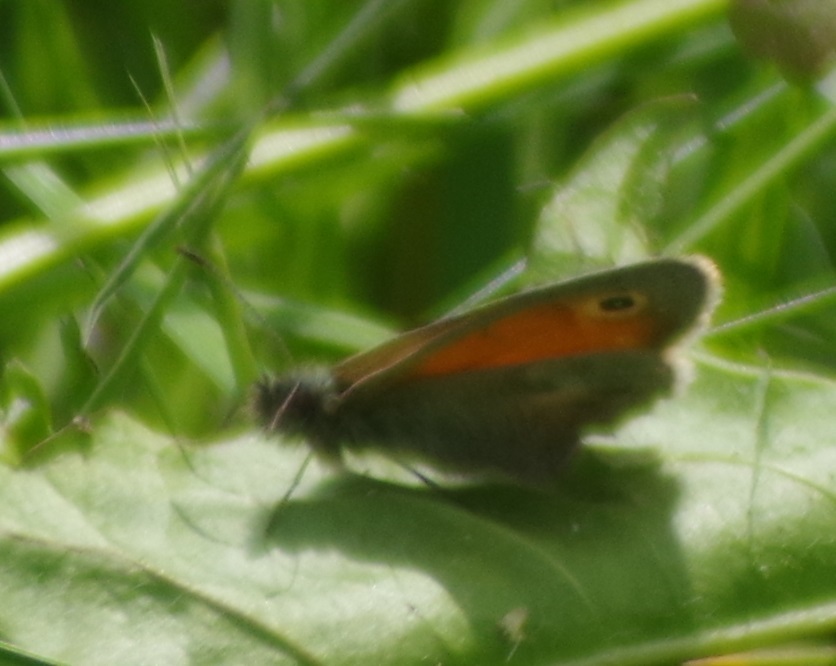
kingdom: Animalia
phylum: Arthropoda
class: Insecta
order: Lepidoptera
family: Nymphalidae
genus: Coenonympha
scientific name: Coenonympha pamphilus
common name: Small heath
